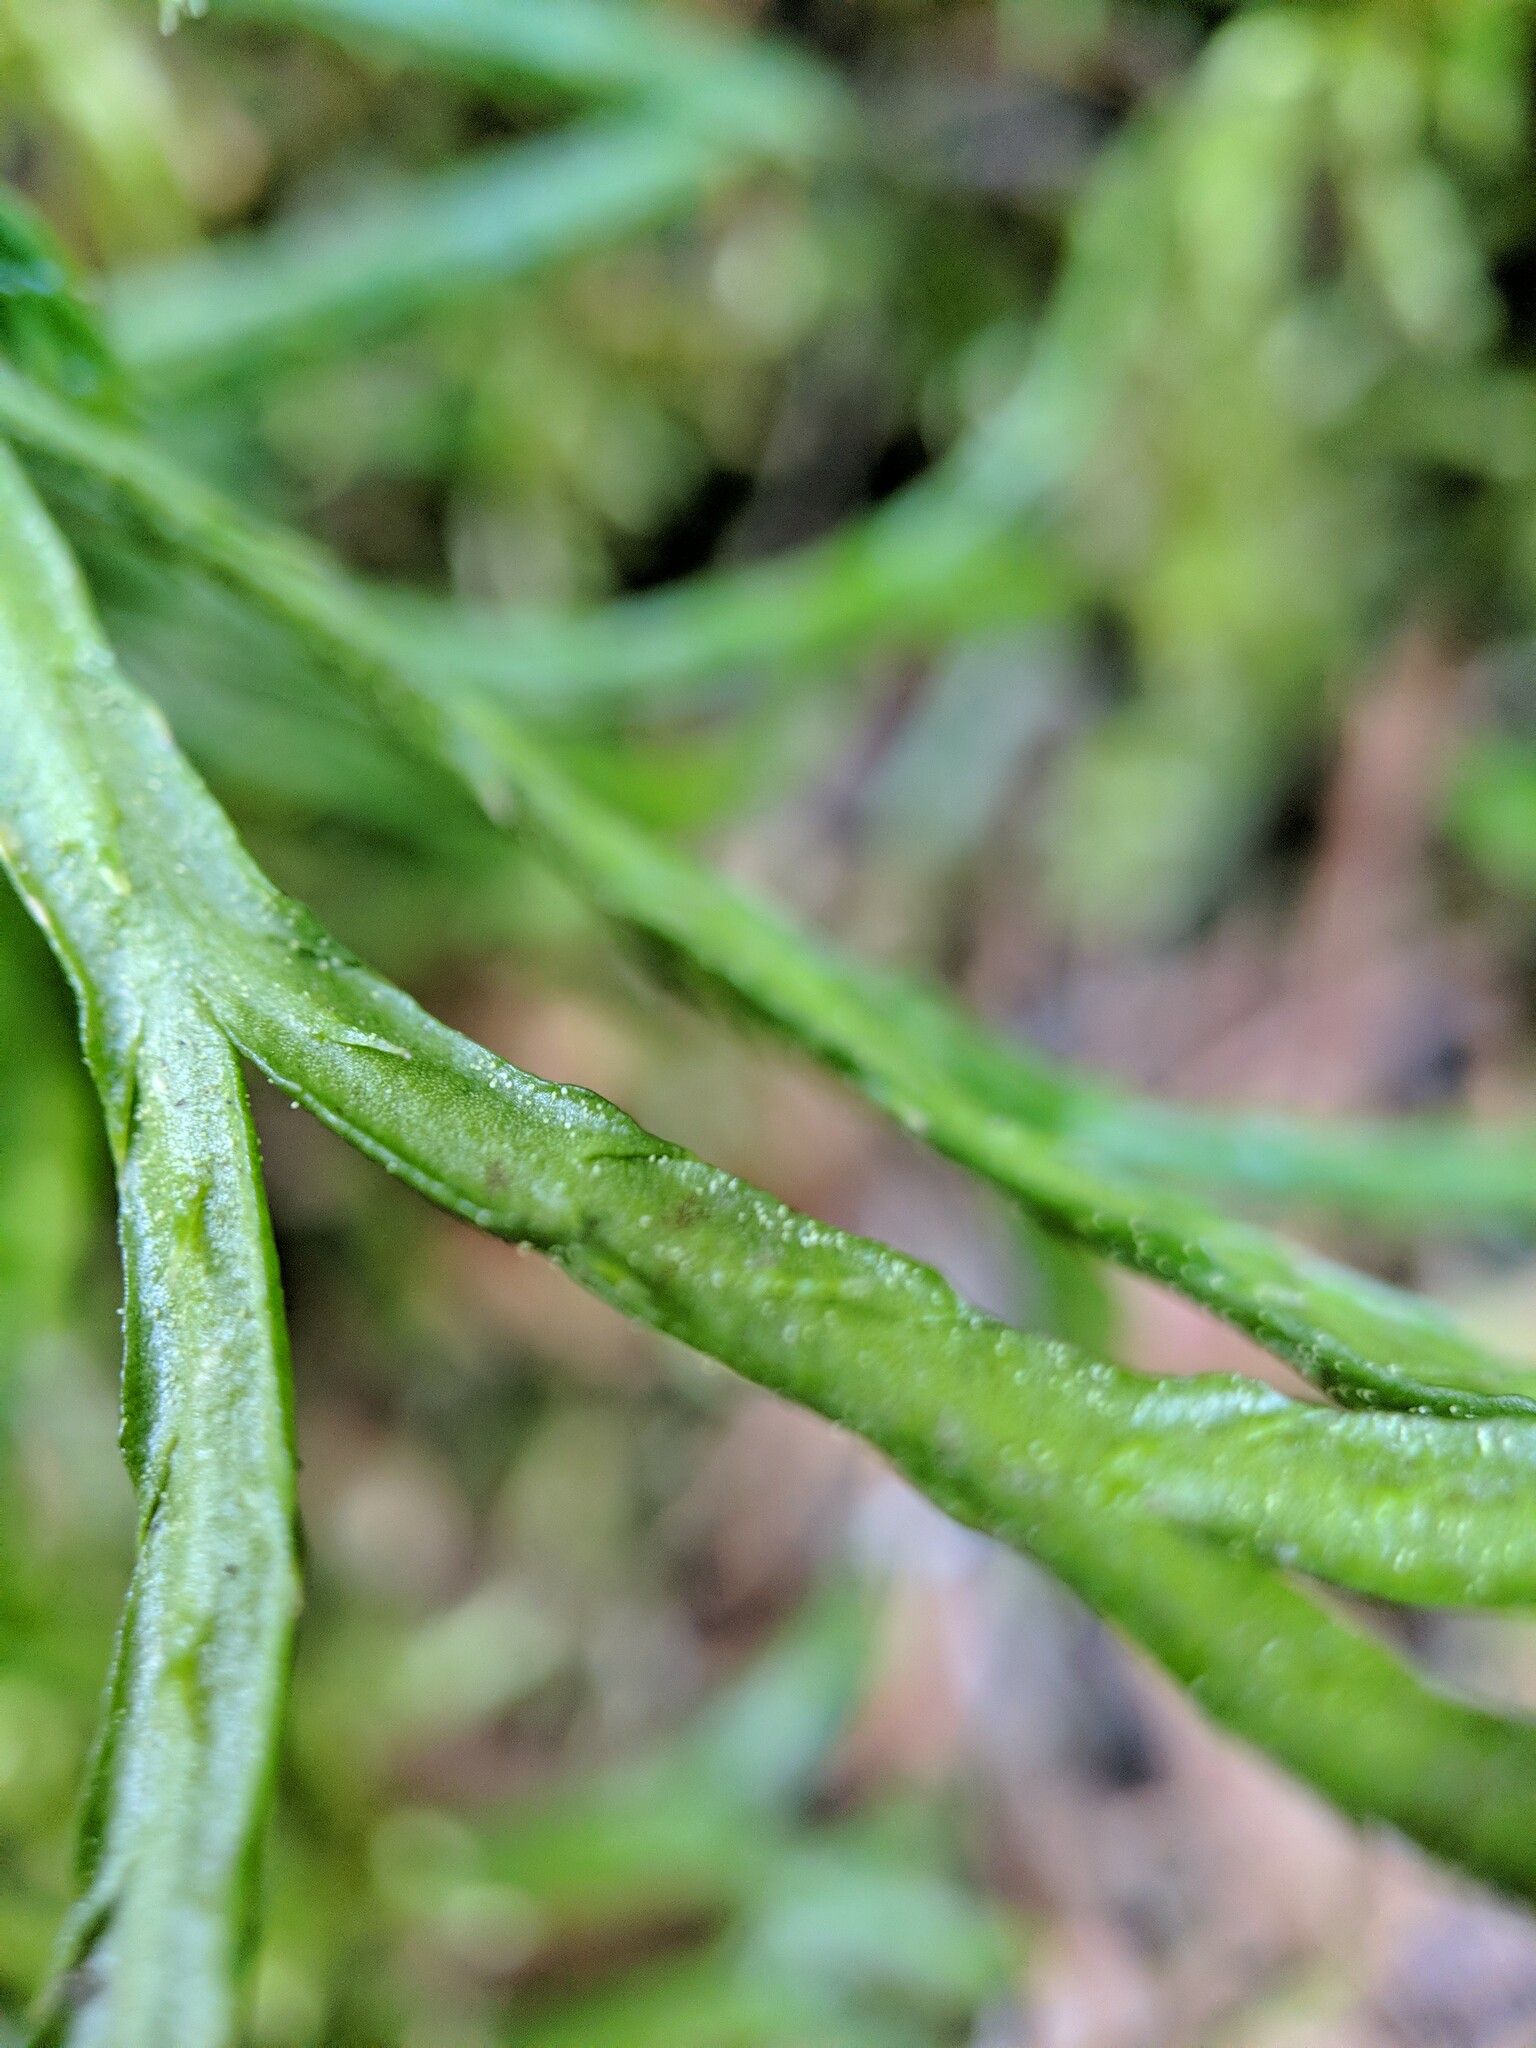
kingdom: Plantae
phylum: Tracheophyta
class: Lycopodiopsida
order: Lycopodiales
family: Lycopodiaceae
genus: Diphasiastrum
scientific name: Diphasiastrum complanatum
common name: Northern running-pine
